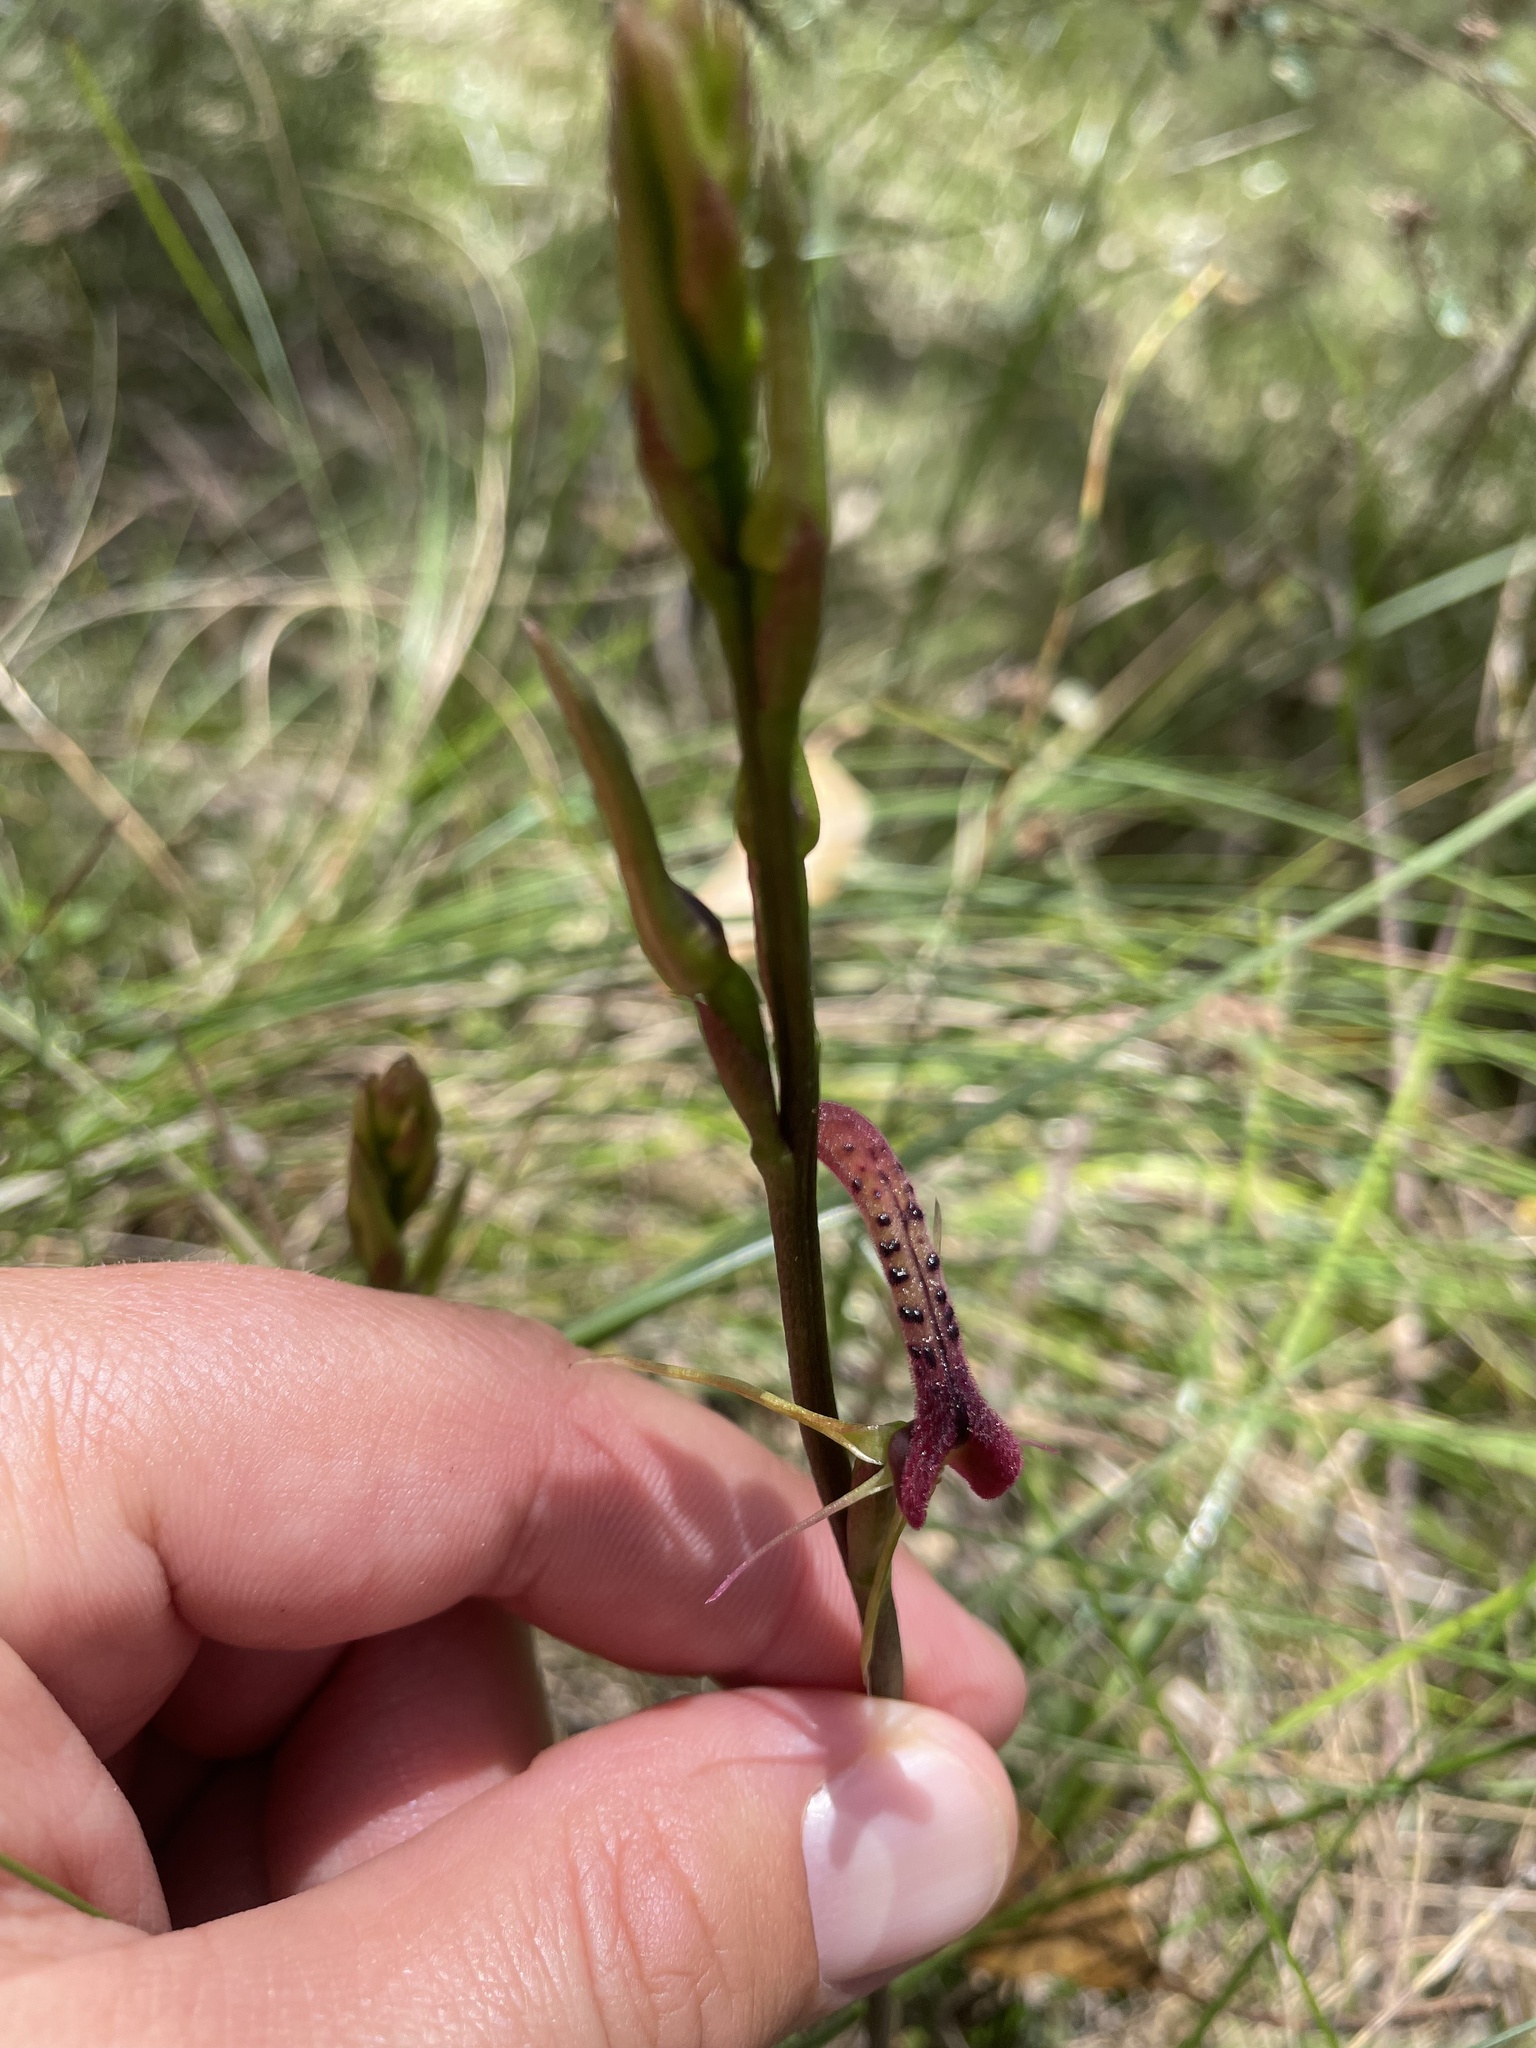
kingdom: Plantae
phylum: Tracheophyta
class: Liliopsida
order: Asparagales
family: Orchidaceae
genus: Cryptostylis
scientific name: Cryptostylis leptochila
